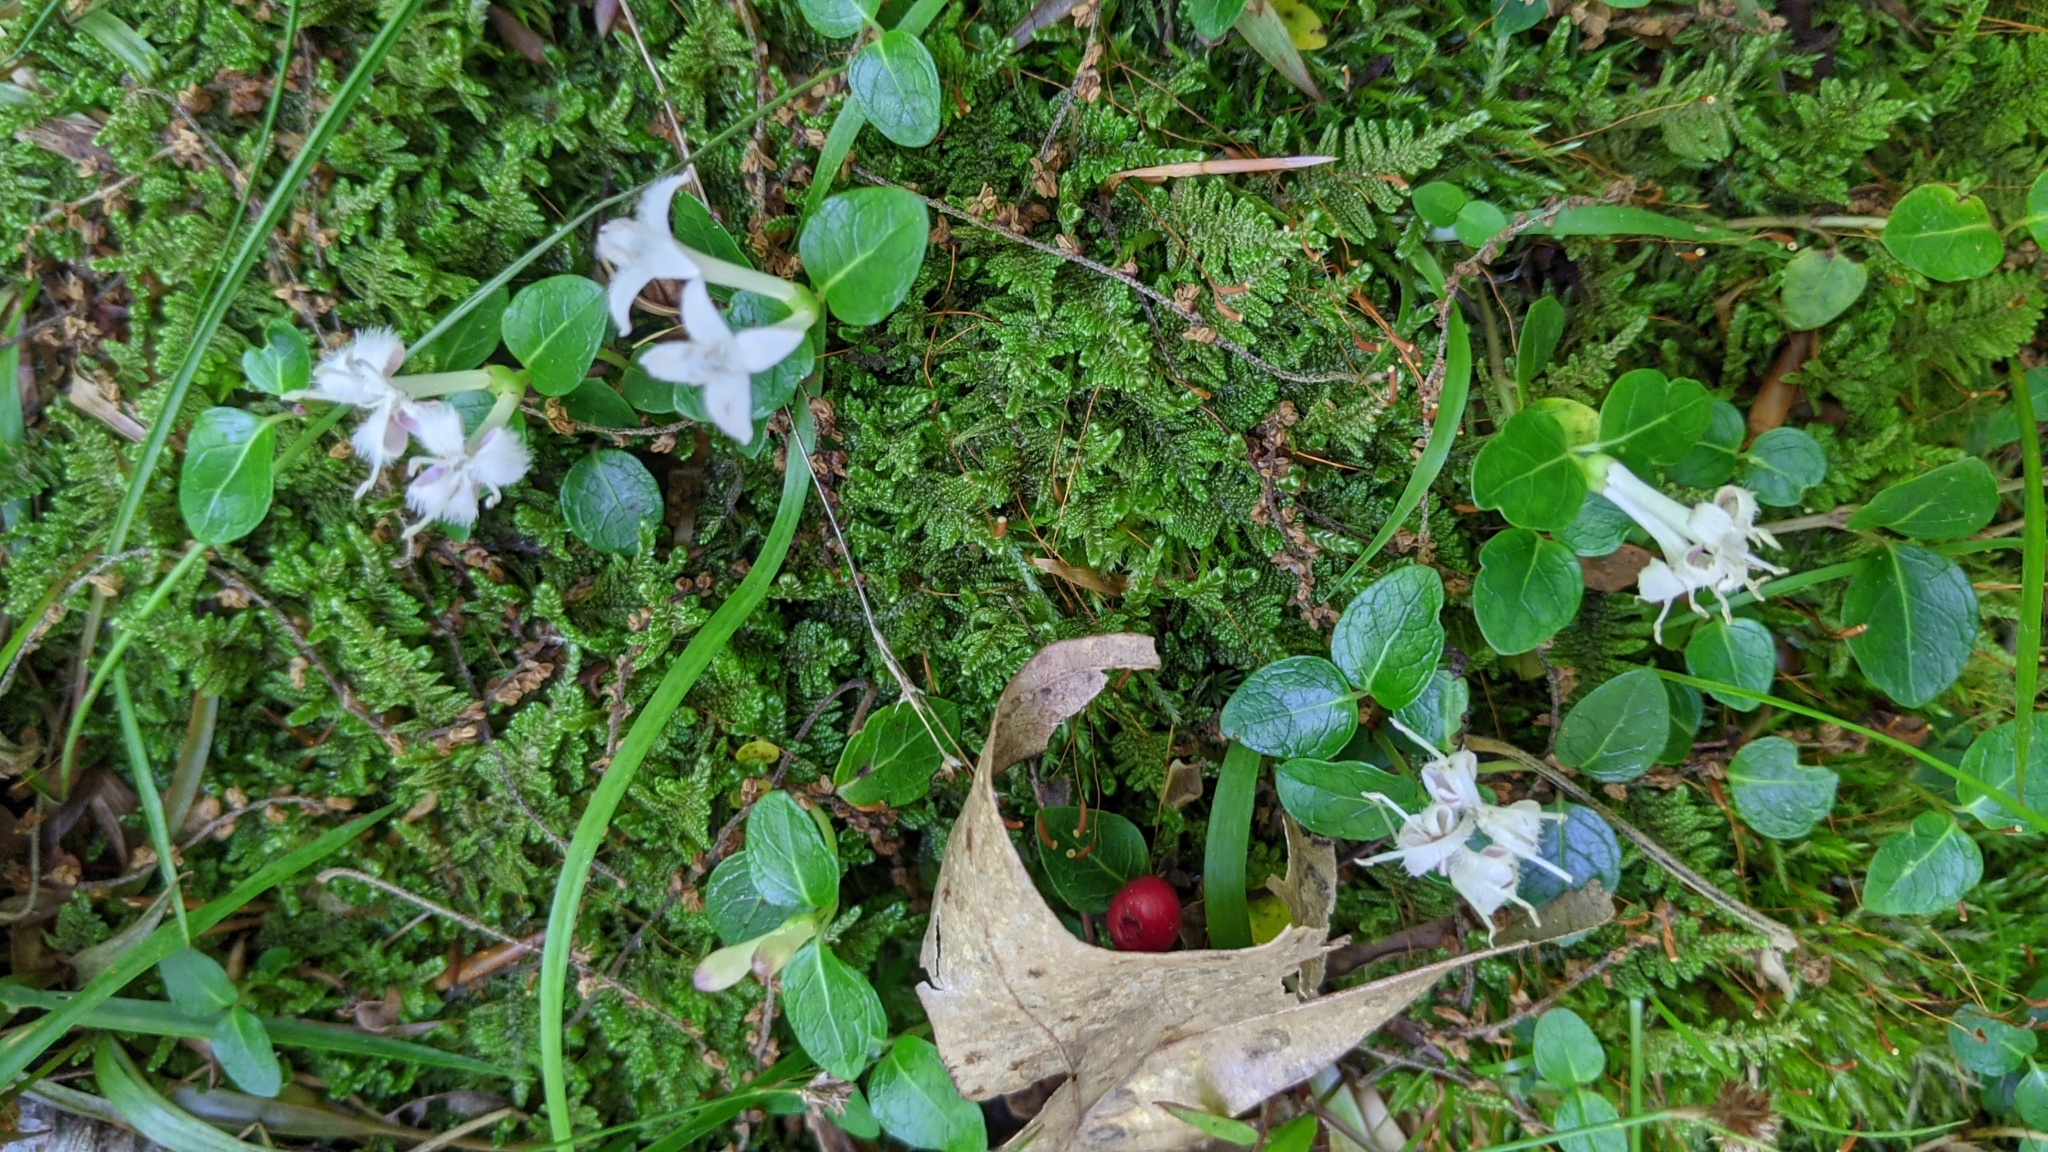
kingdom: Plantae
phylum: Tracheophyta
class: Magnoliopsida
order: Gentianales
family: Rubiaceae
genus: Mitchella
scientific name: Mitchella repens
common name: Partridge-berry
